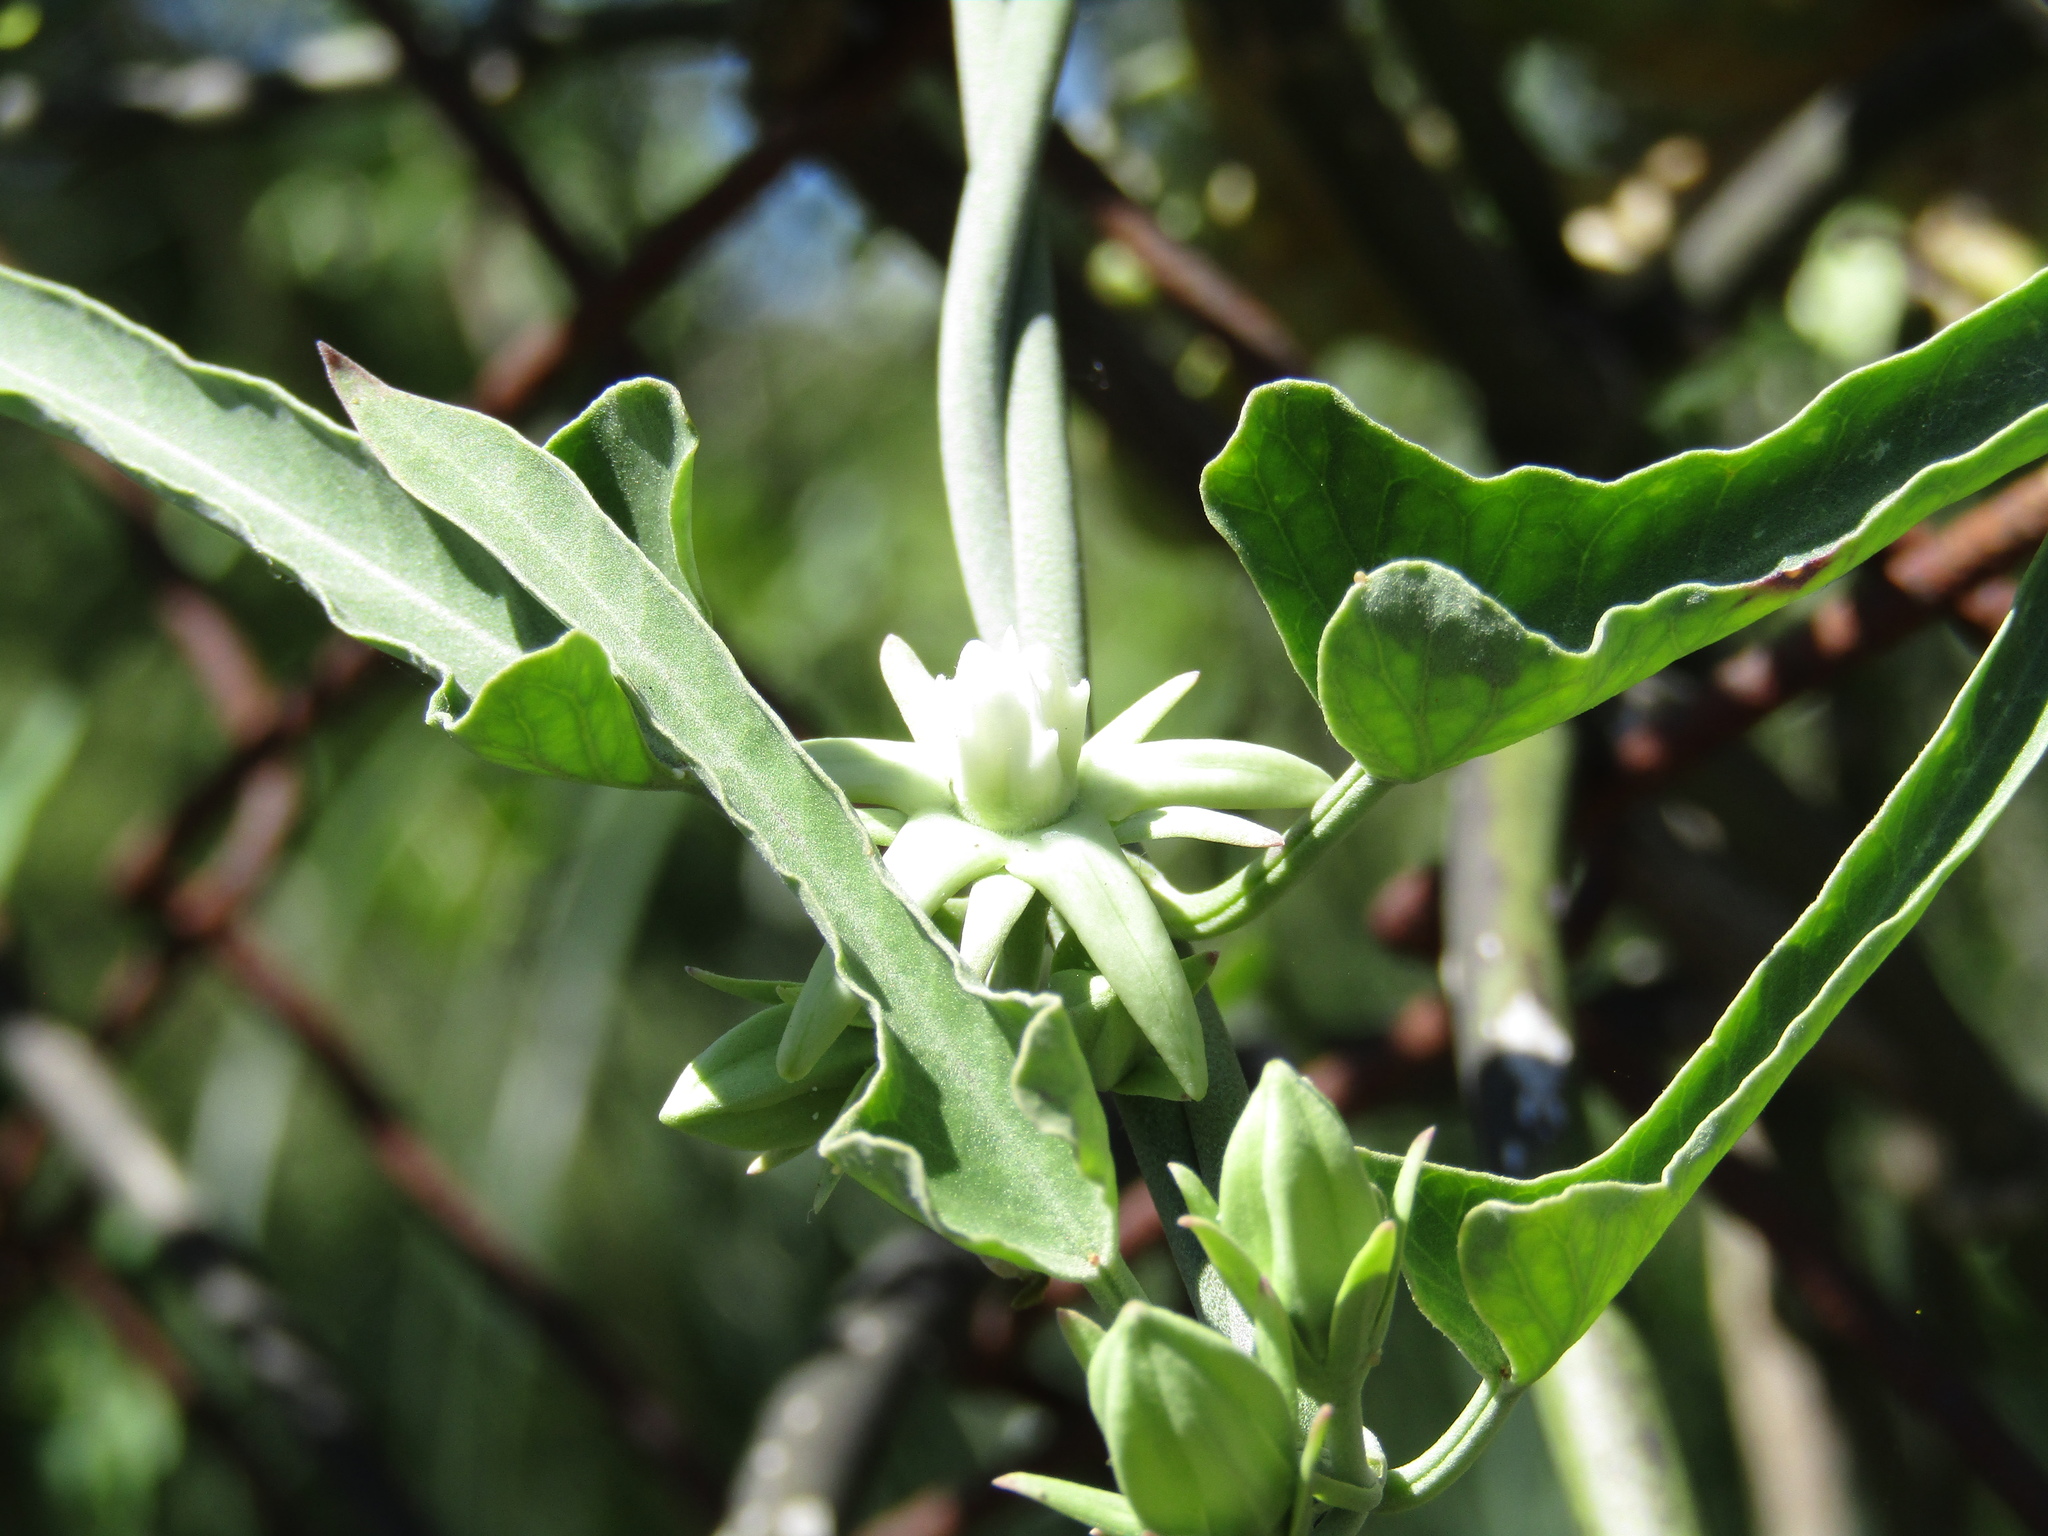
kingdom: Plantae
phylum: Tracheophyta
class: Magnoliopsida
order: Gentianales
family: Apocynaceae
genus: Araujia
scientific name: Araujia odorata
